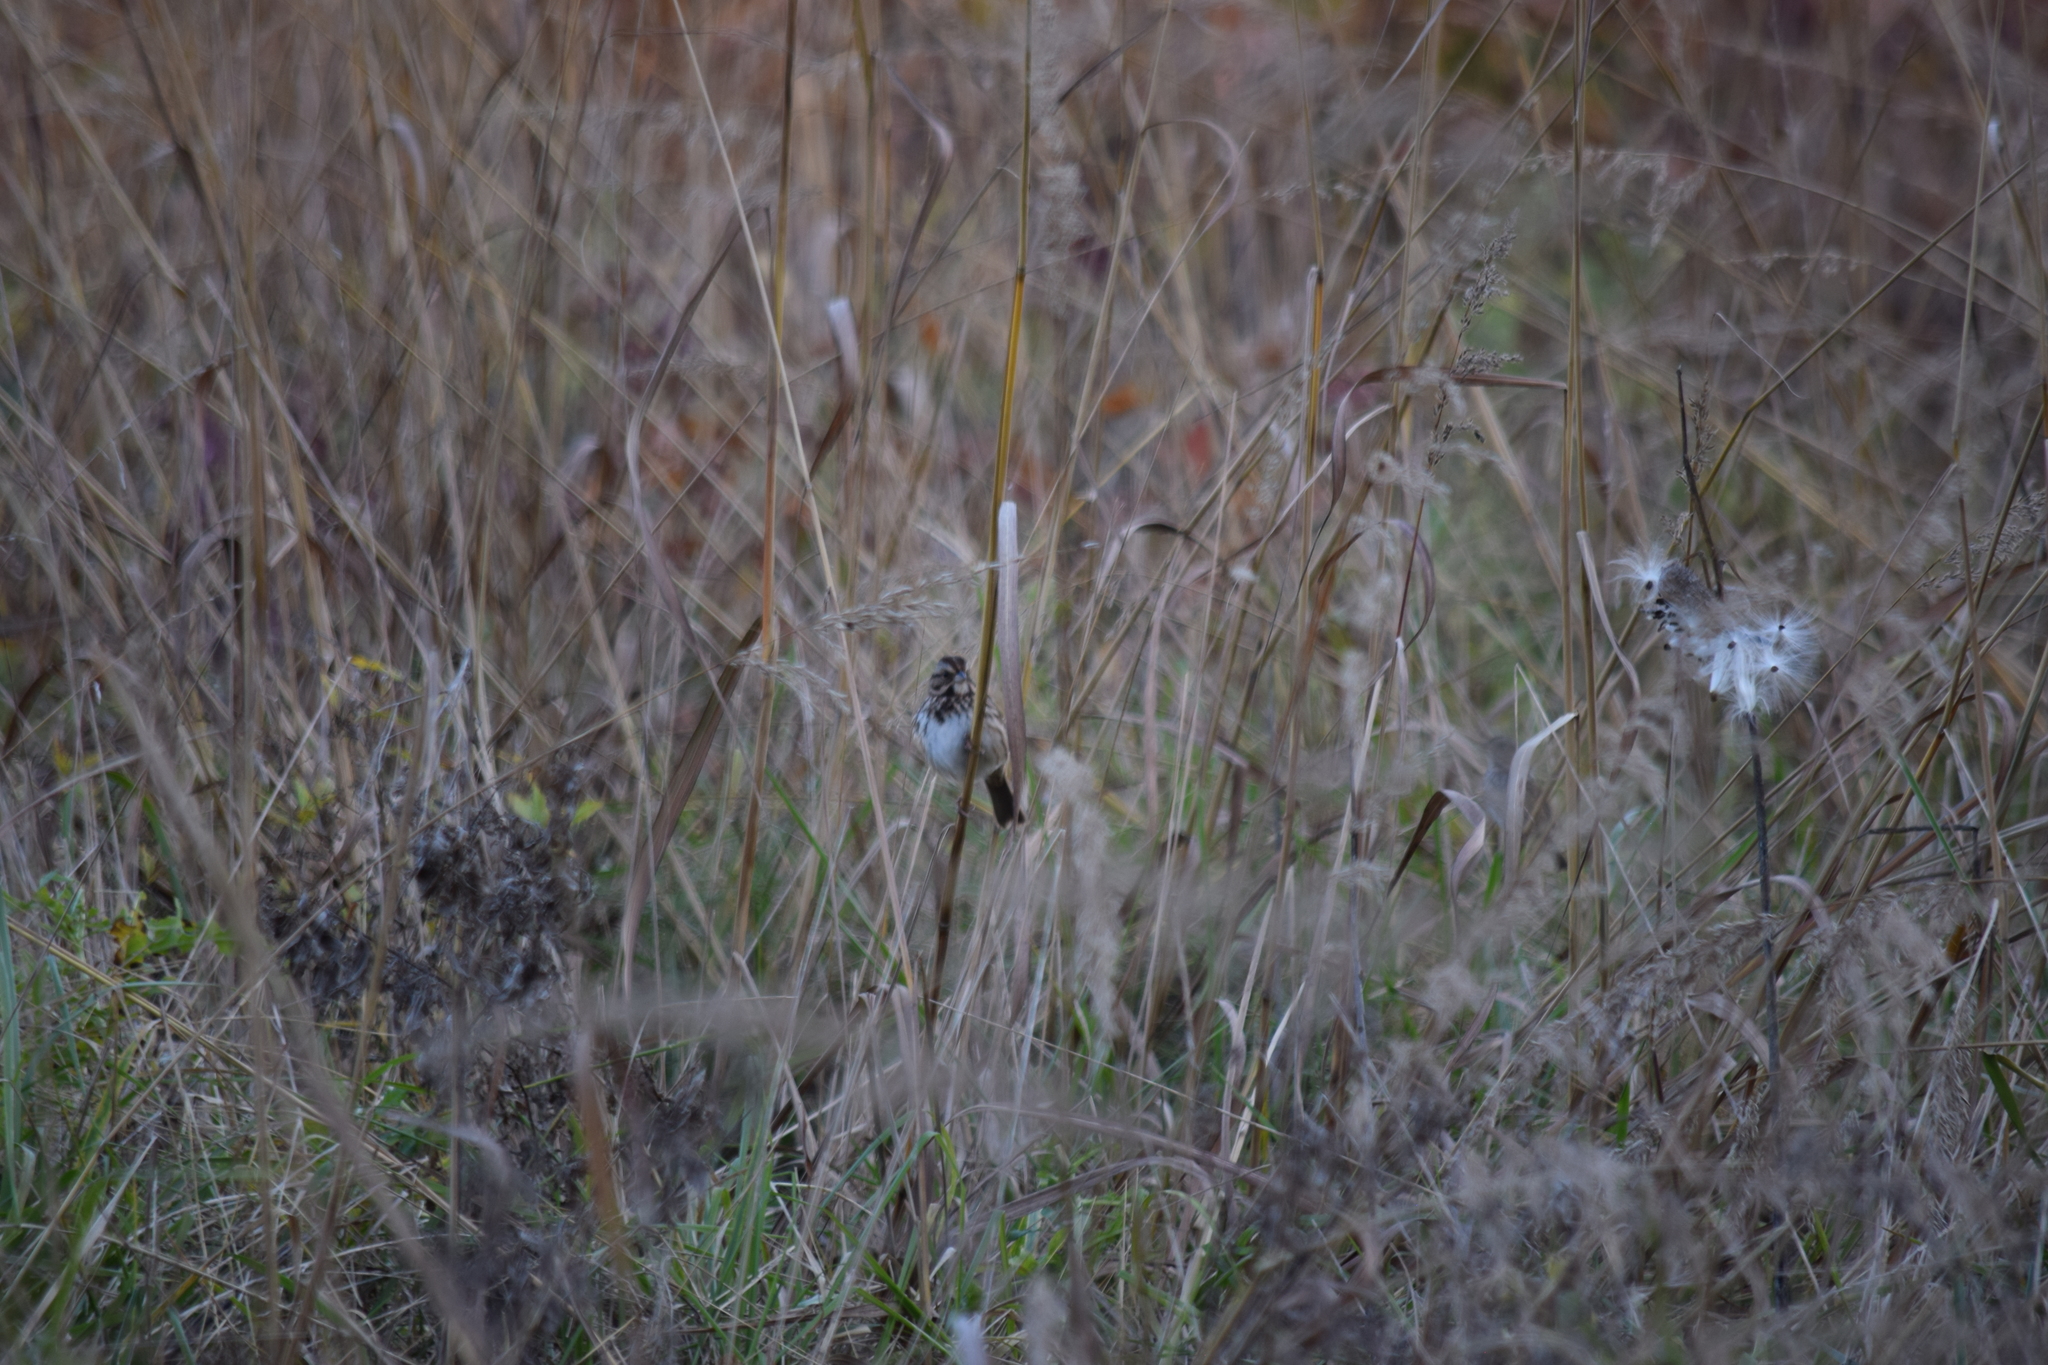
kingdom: Animalia
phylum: Chordata
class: Aves
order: Passeriformes
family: Passerellidae
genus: Melospiza
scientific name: Melospiza melodia
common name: Song sparrow
